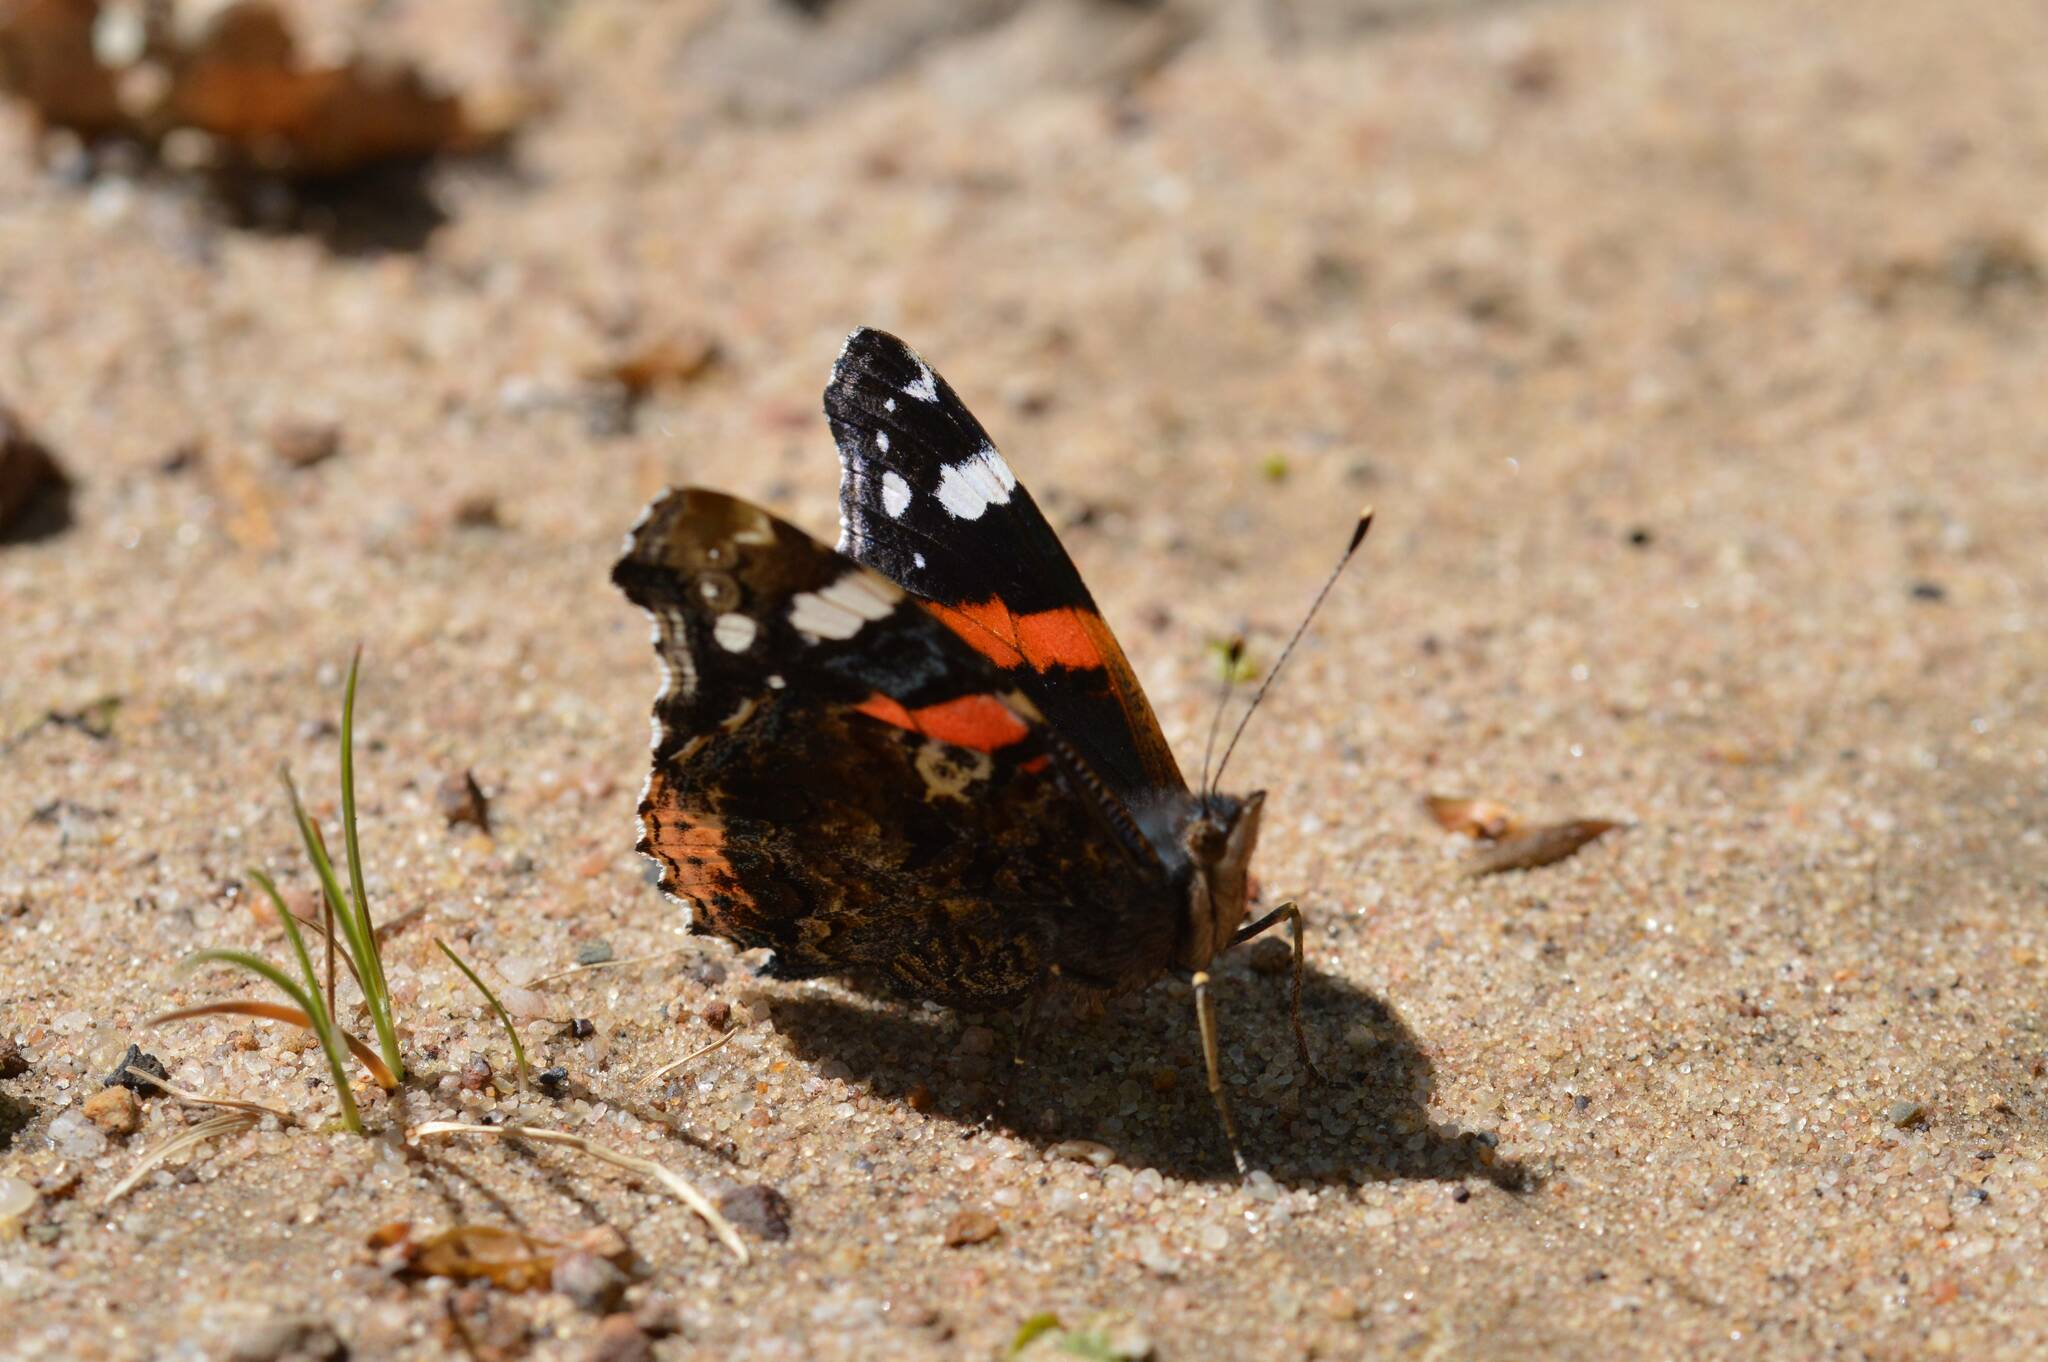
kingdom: Animalia
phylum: Arthropoda
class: Insecta
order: Lepidoptera
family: Nymphalidae
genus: Vanessa
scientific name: Vanessa atalanta
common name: Red admiral
